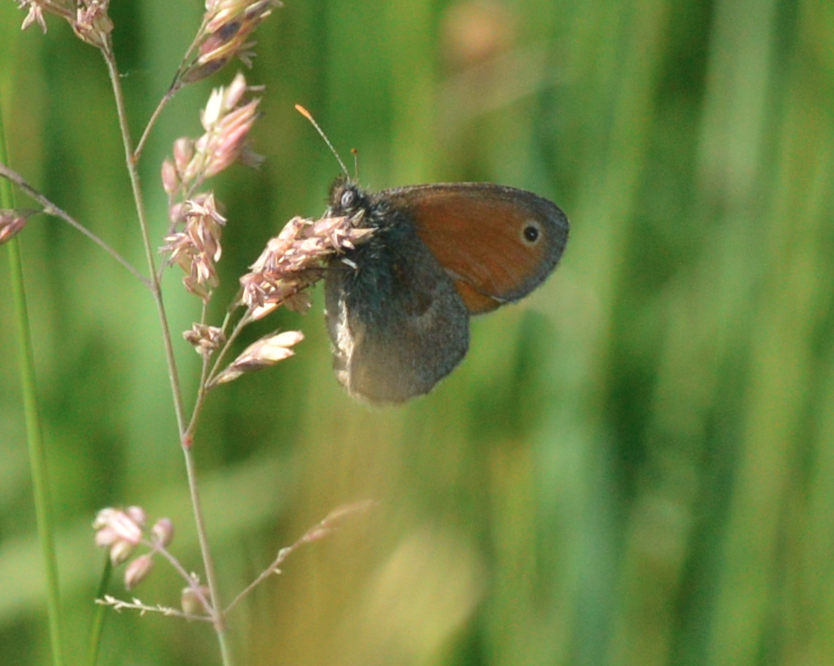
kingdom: Animalia
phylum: Arthropoda
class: Insecta
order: Lepidoptera
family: Nymphalidae
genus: Coenonympha
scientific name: Coenonympha pamphilus
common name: Small heath
